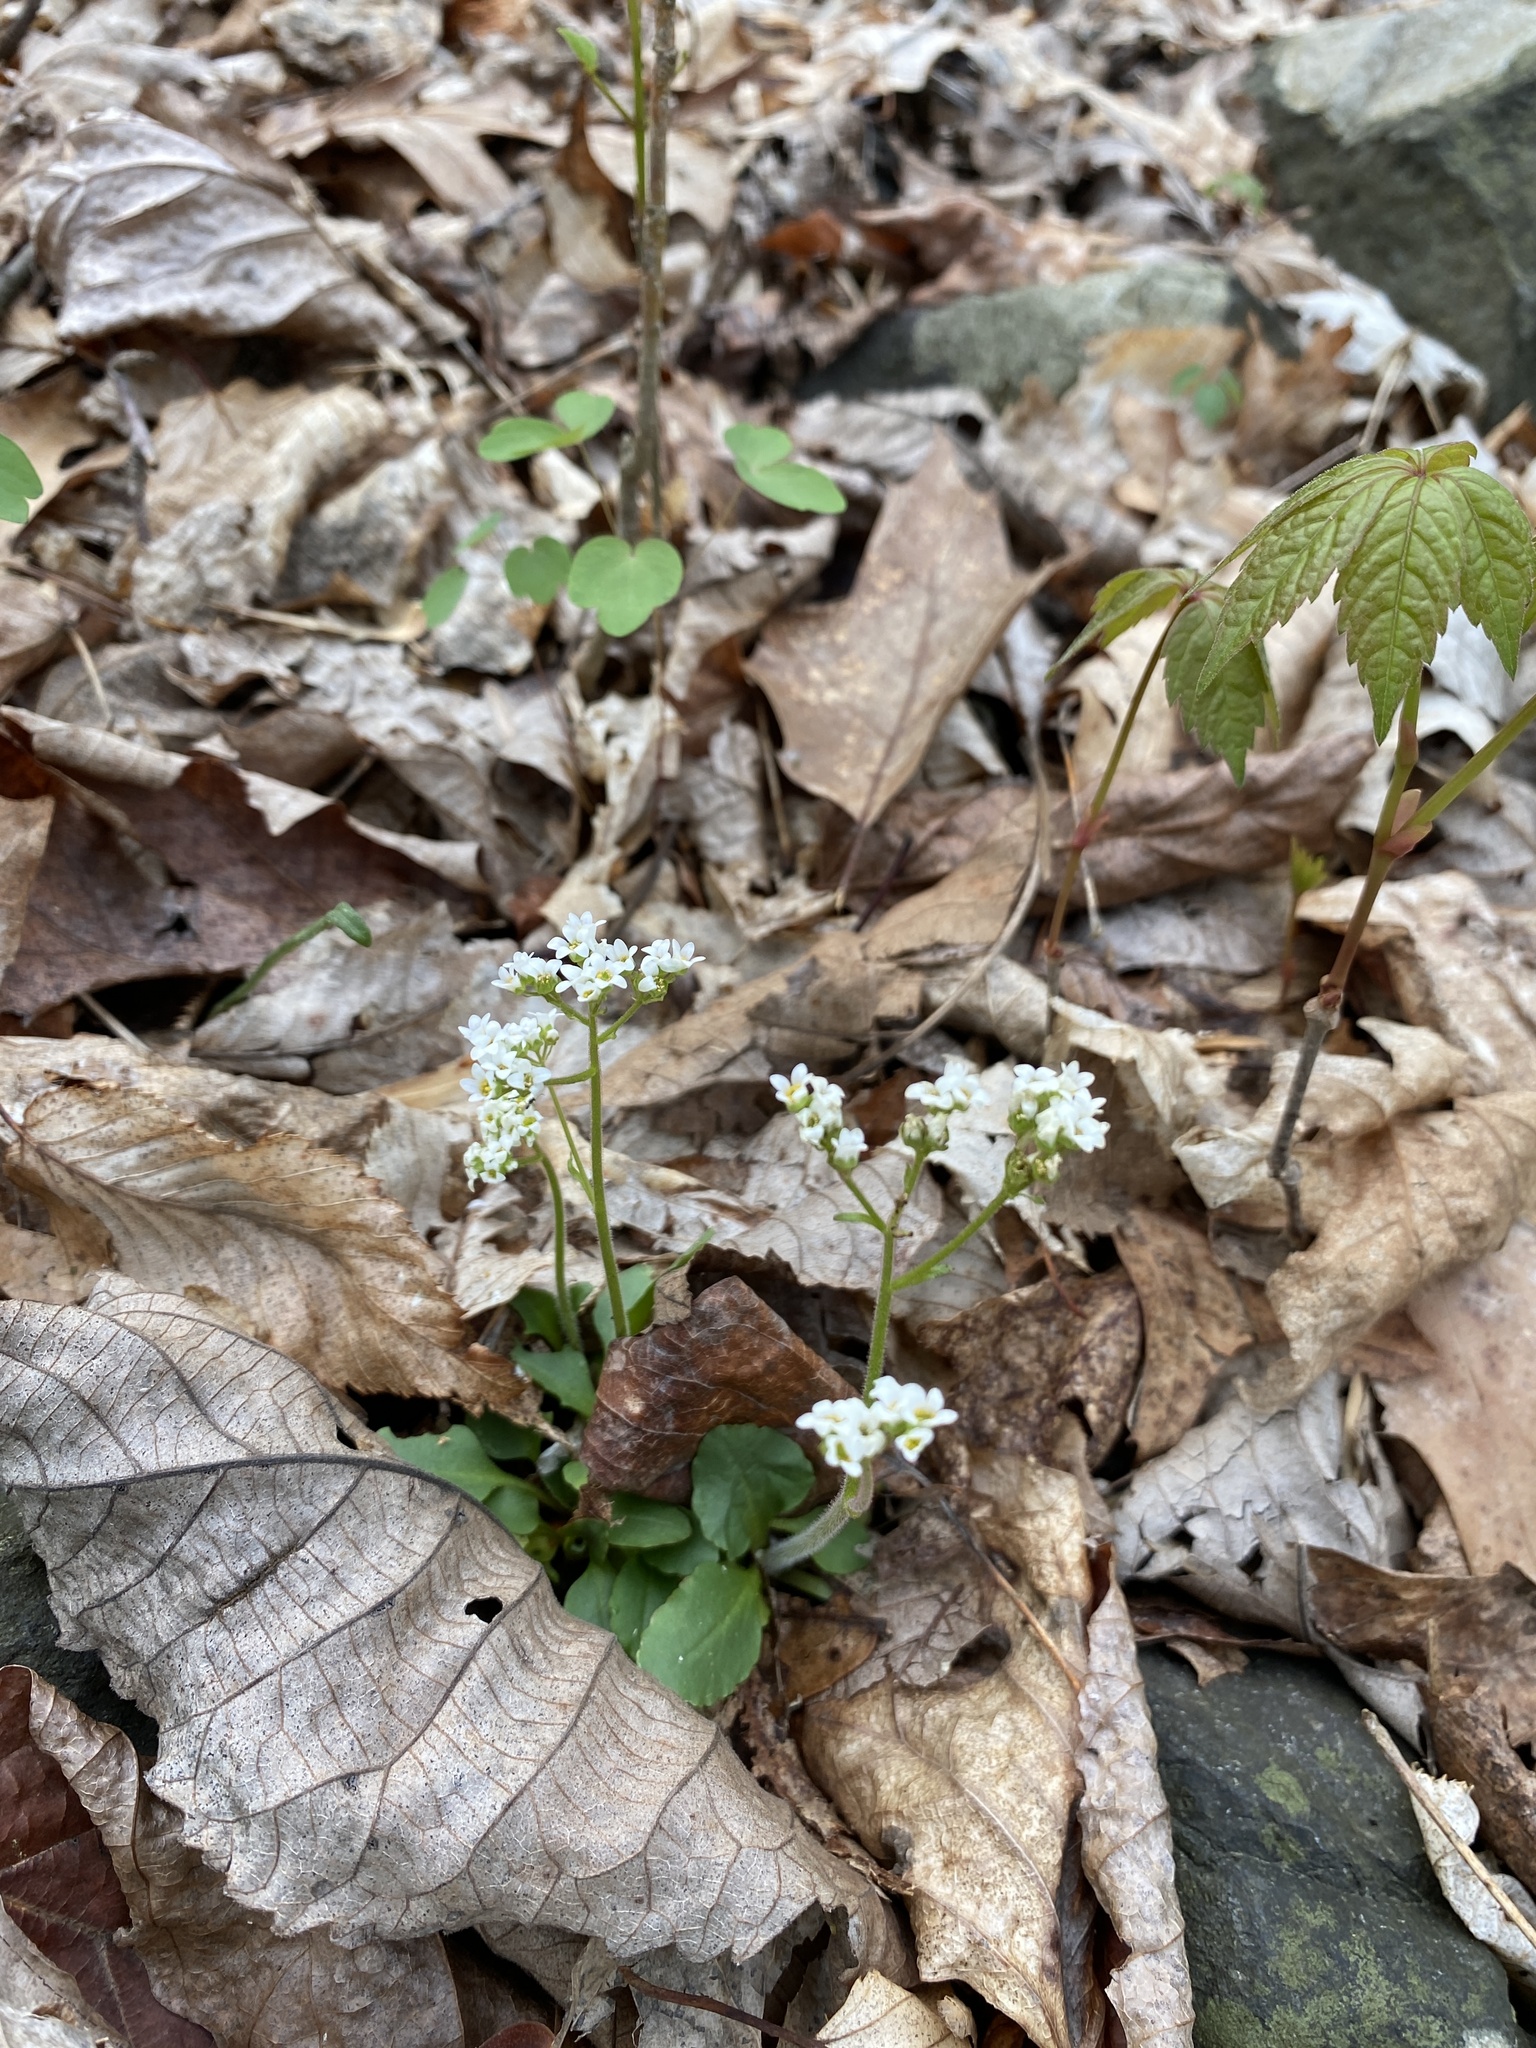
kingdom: Plantae
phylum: Tracheophyta
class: Magnoliopsida
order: Saxifragales
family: Saxifragaceae
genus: Micranthes
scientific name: Micranthes virginiensis
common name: Early saxifrage
